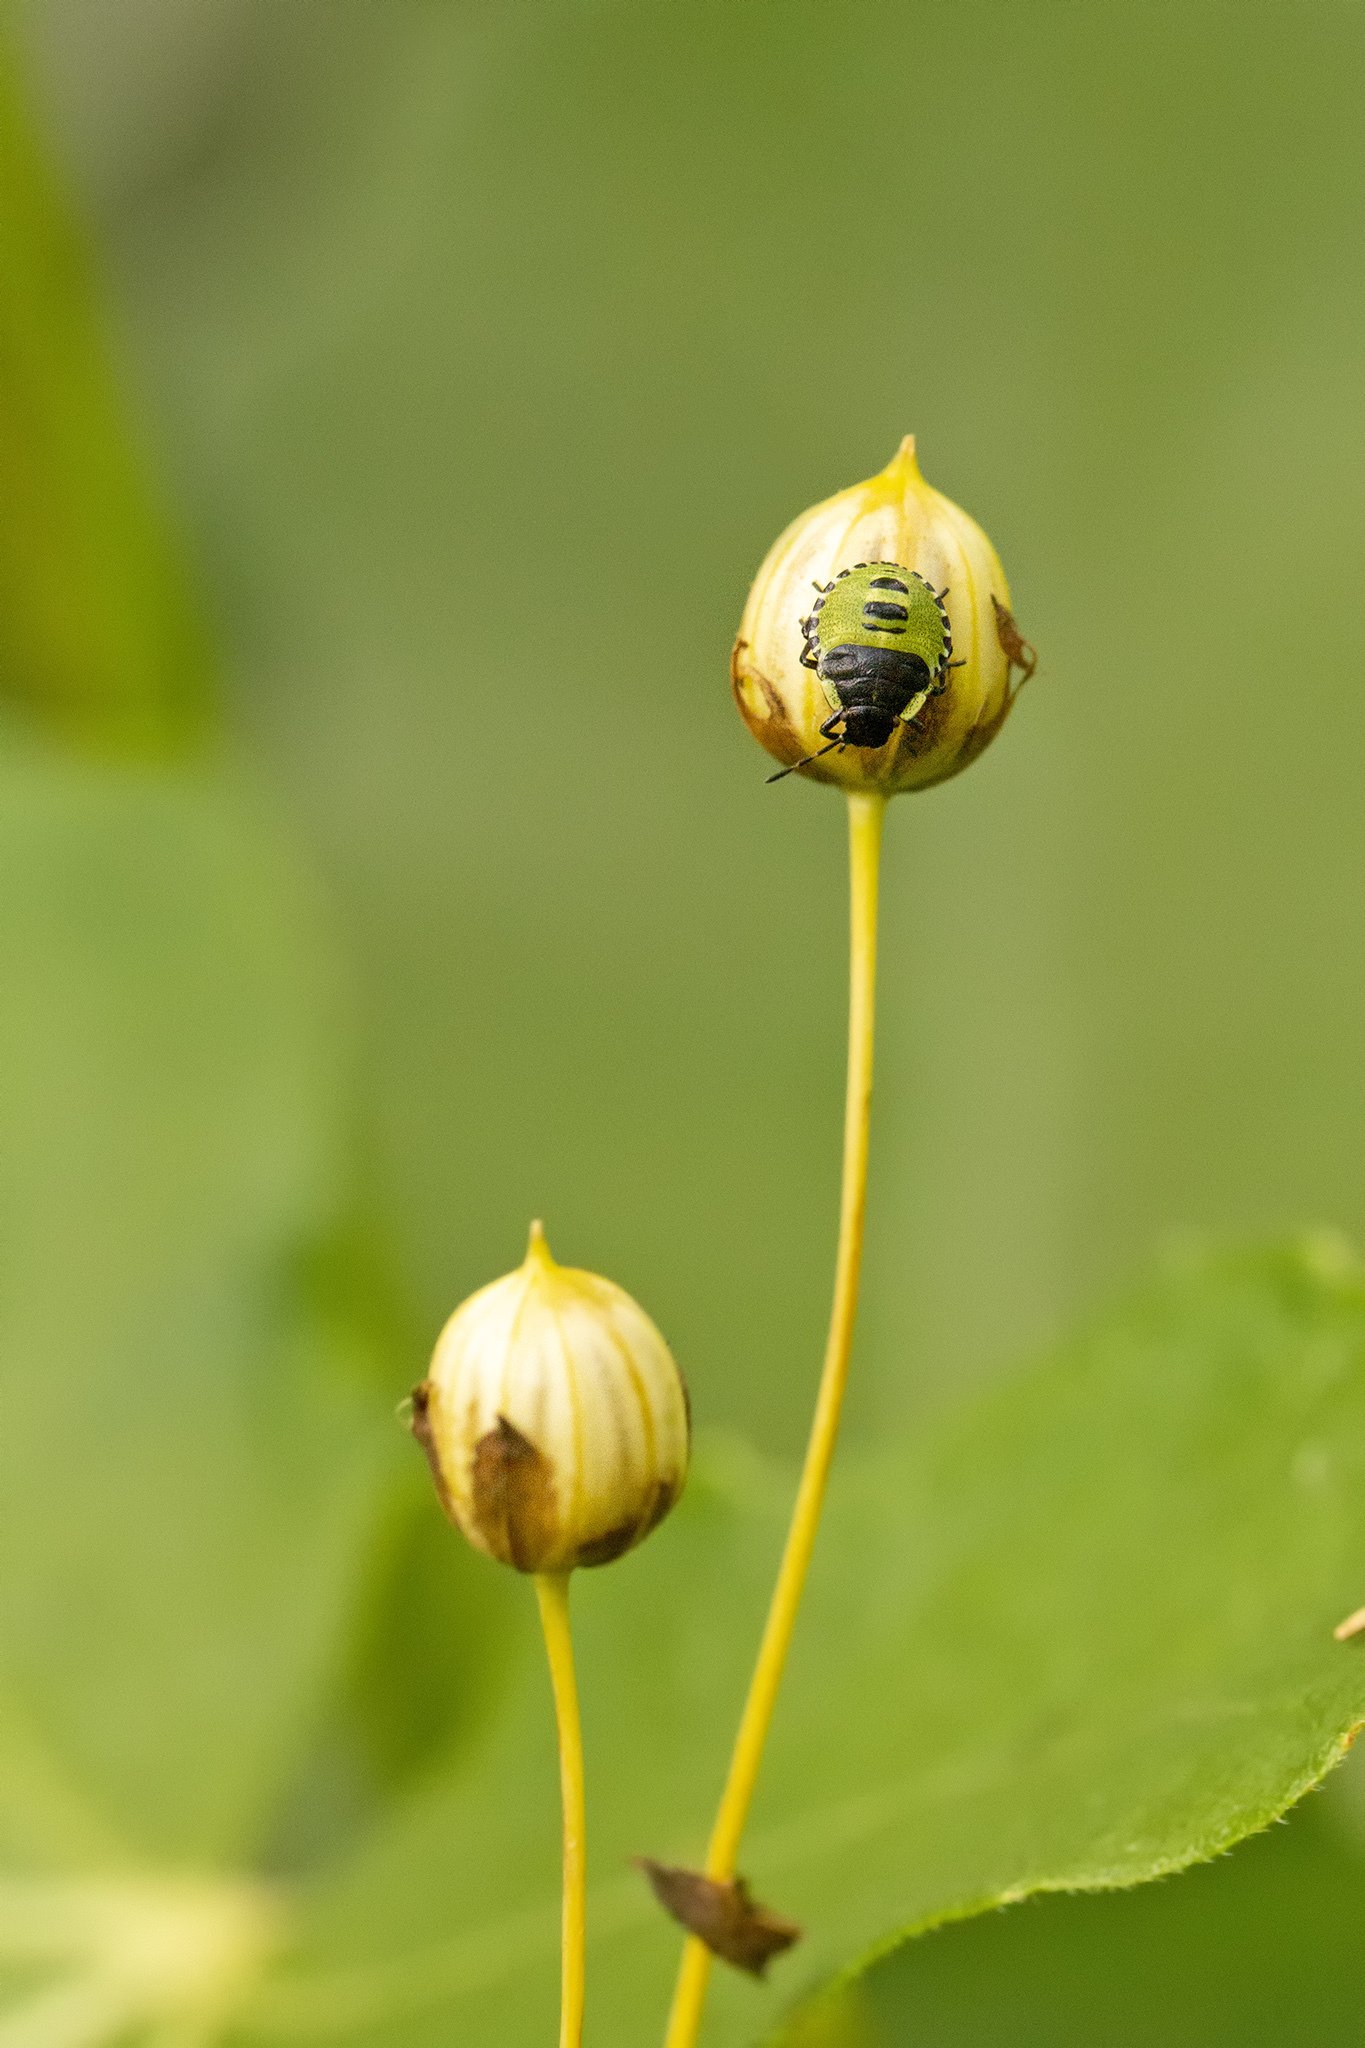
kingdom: Animalia
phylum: Arthropoda
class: Insecta
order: Hemiptera
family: Pentatomidae
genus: Palomena
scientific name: Palomena prasina
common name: Green shieldbug
